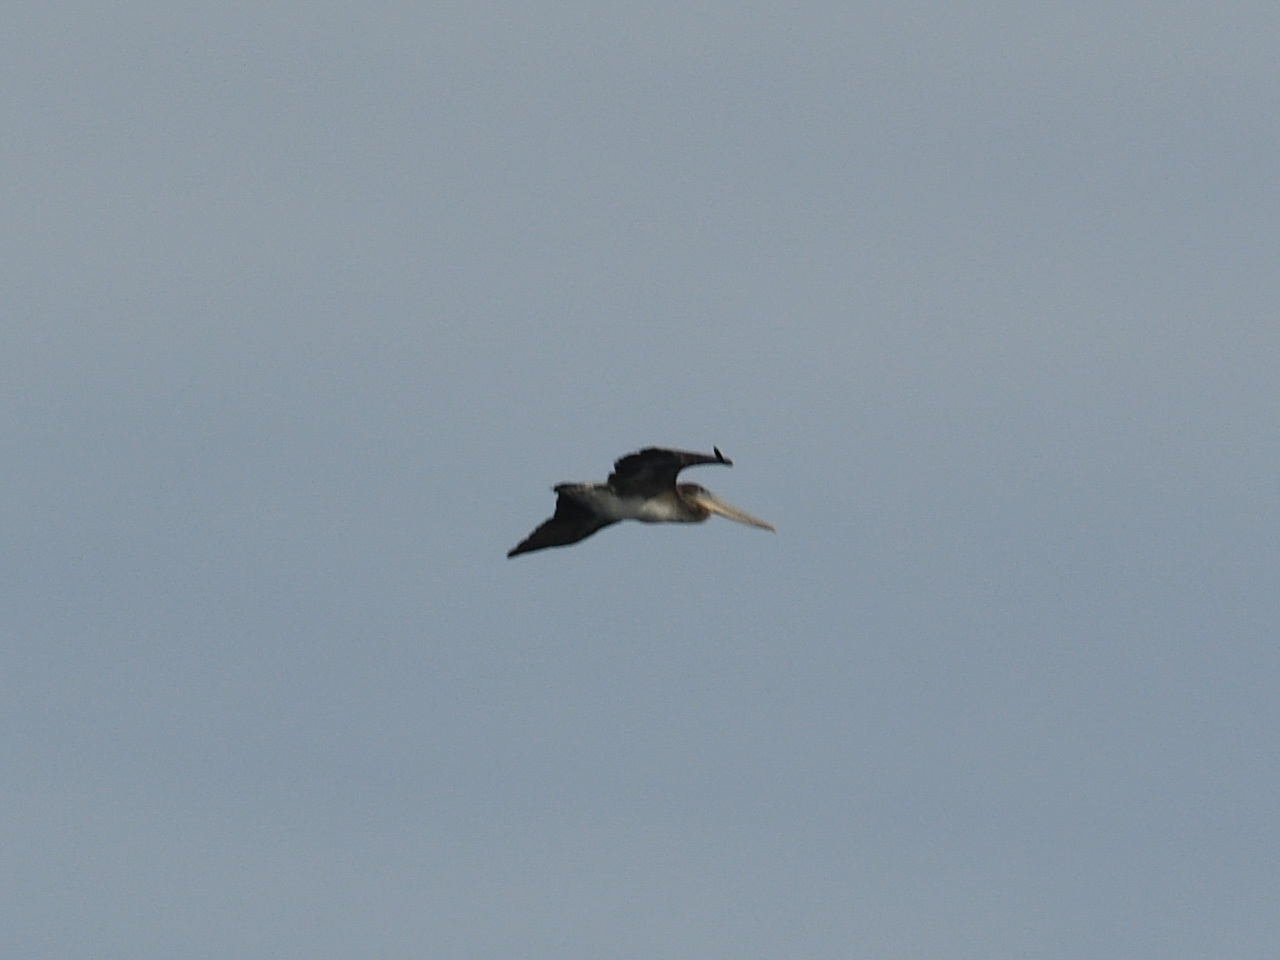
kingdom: Animalia
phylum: Chordata
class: Aves
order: Pelecaniformes
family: Pelecanidae
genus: Pelecanus
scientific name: Pelecanus occidentalis
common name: Brown pelican
